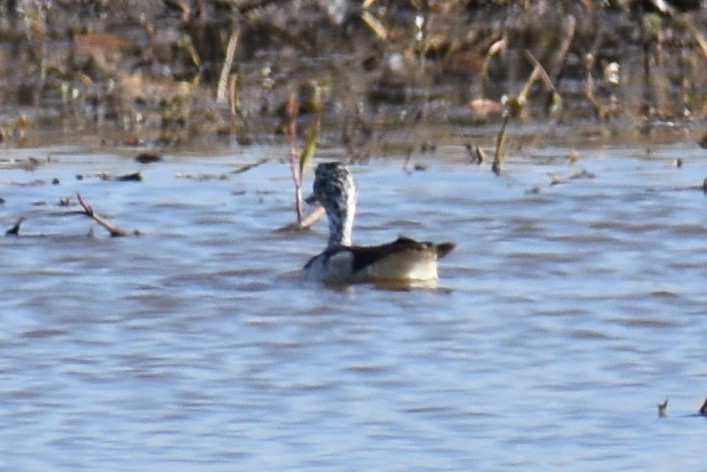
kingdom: Animalia
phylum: Chordata
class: Aves
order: Anseriformes
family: Anatidae
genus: Sarkidiornis
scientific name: Sarkidiornis melanotos
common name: Comb duck
